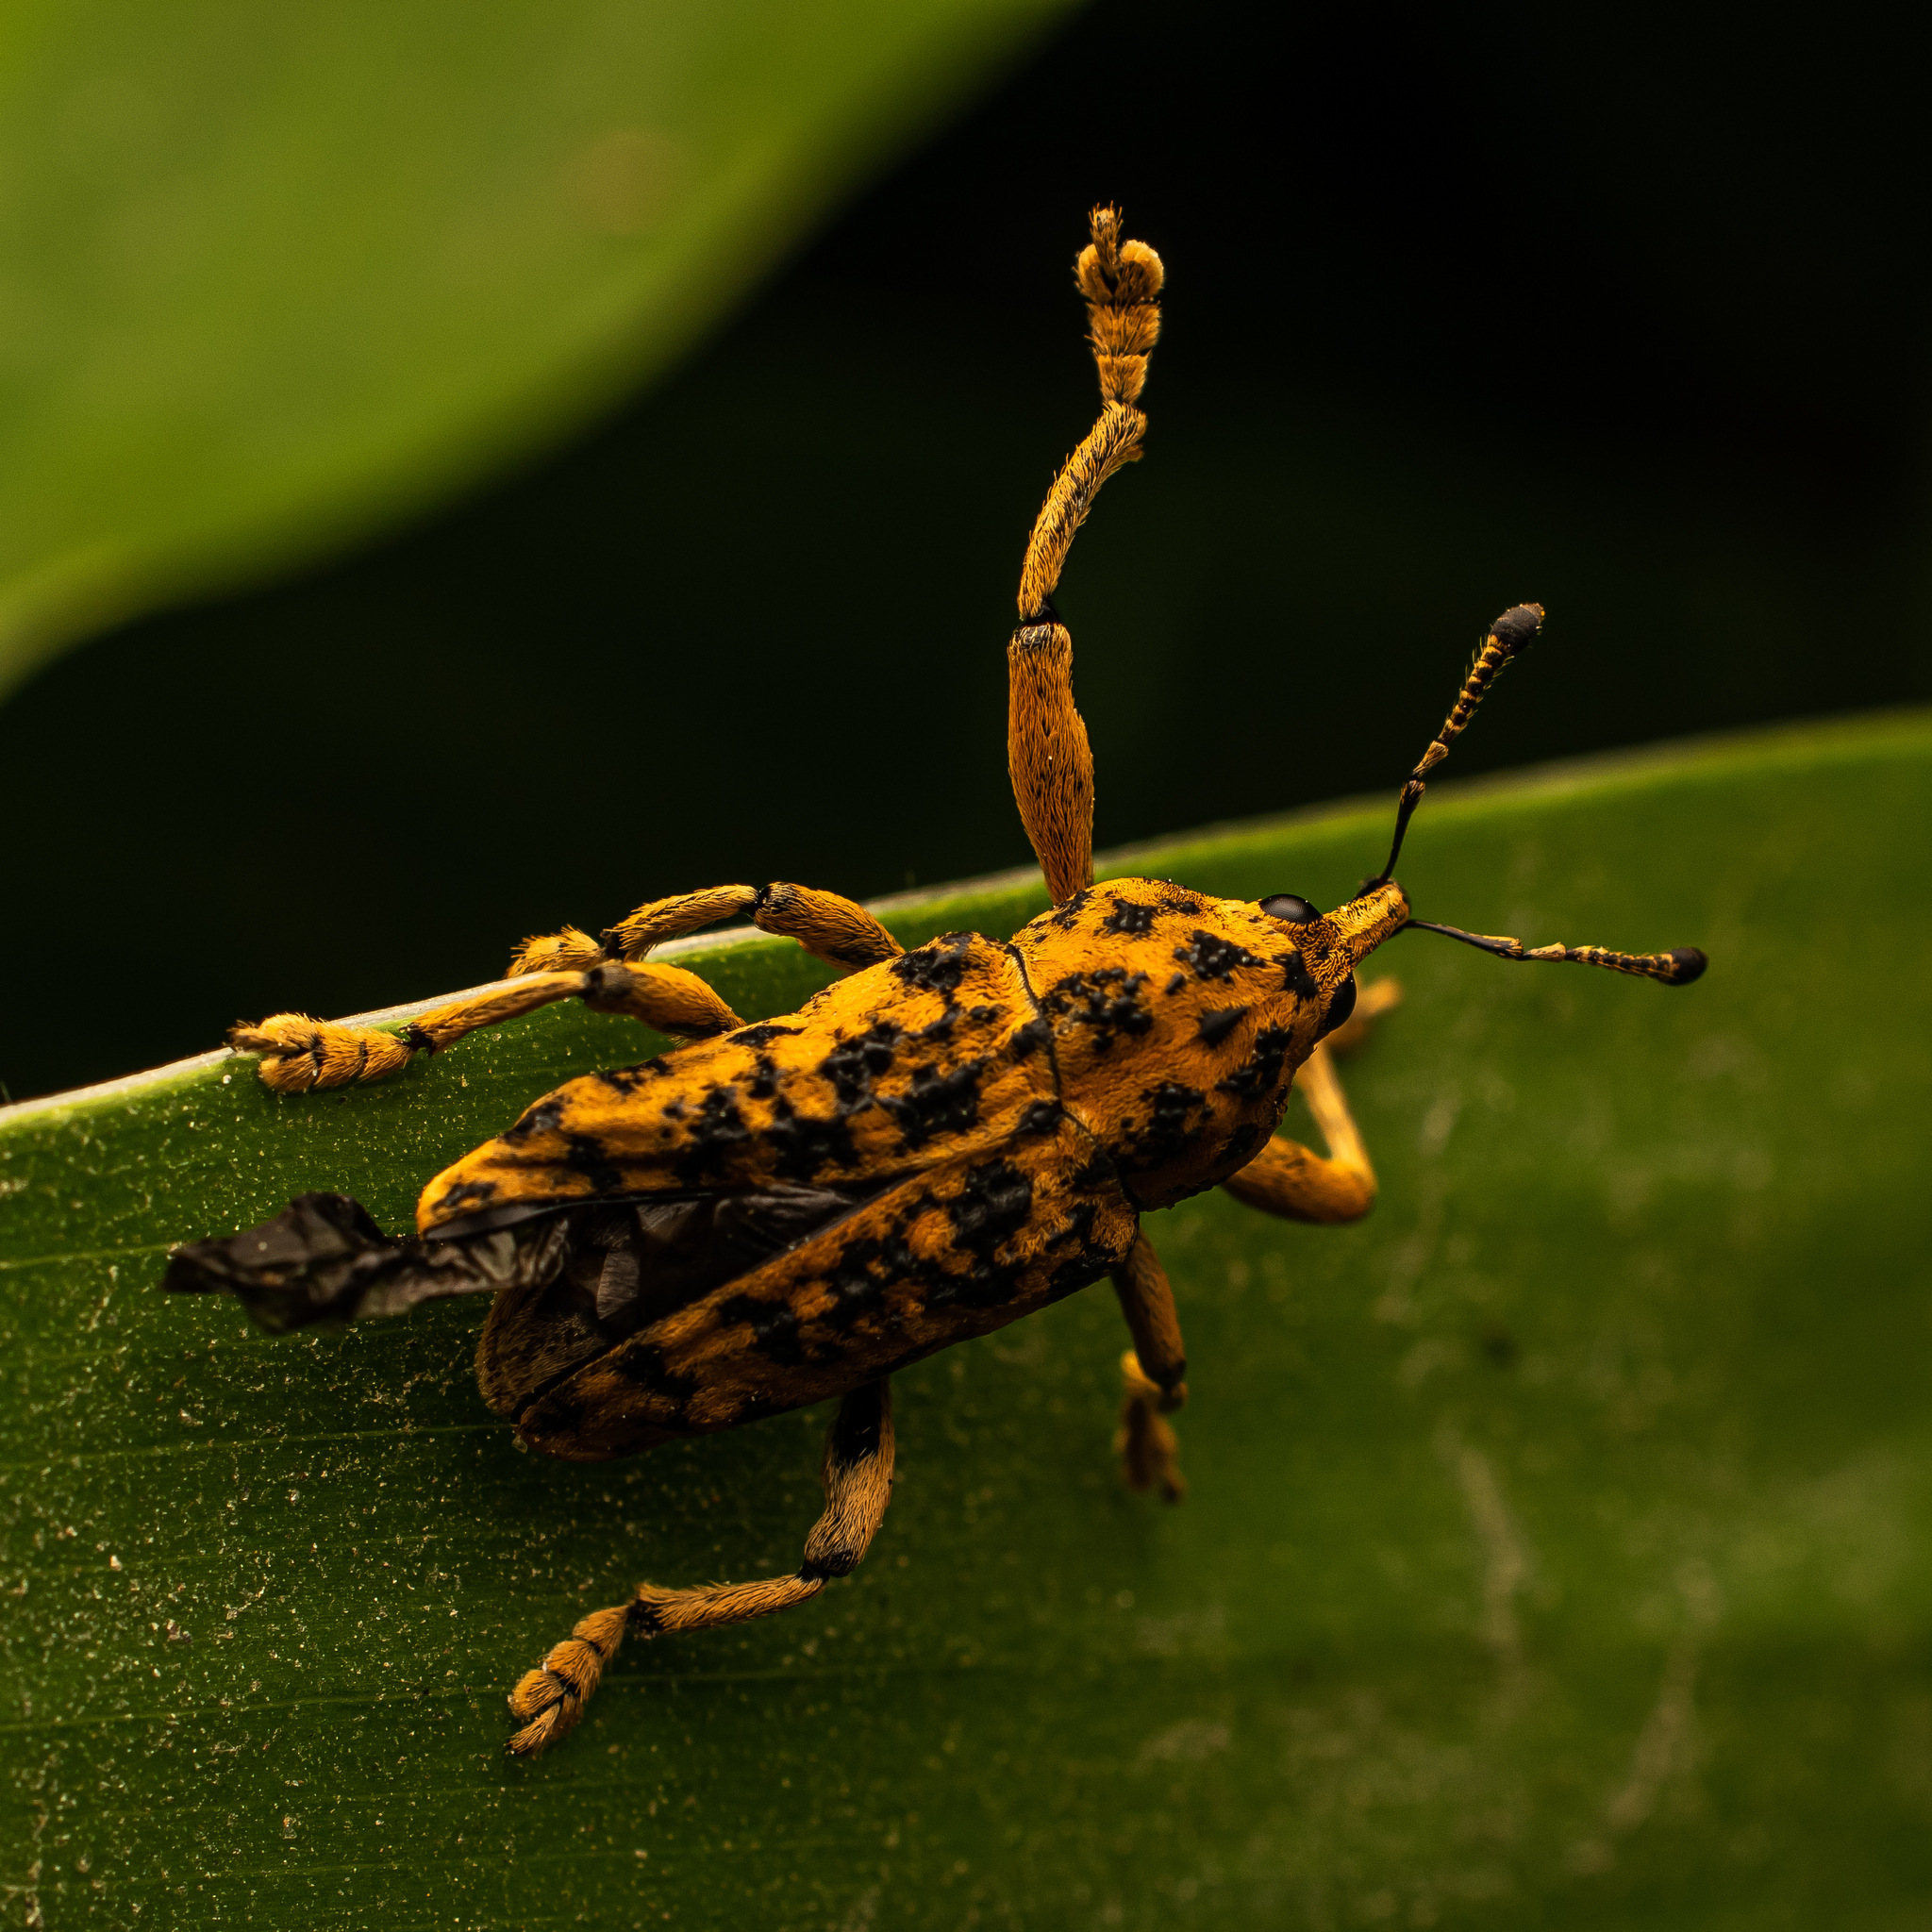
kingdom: Animalia
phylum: Arthropoda
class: Insecta
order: Coleoptera
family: Curculionidae
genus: Amerhinus
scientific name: Amerhinus olivieri
